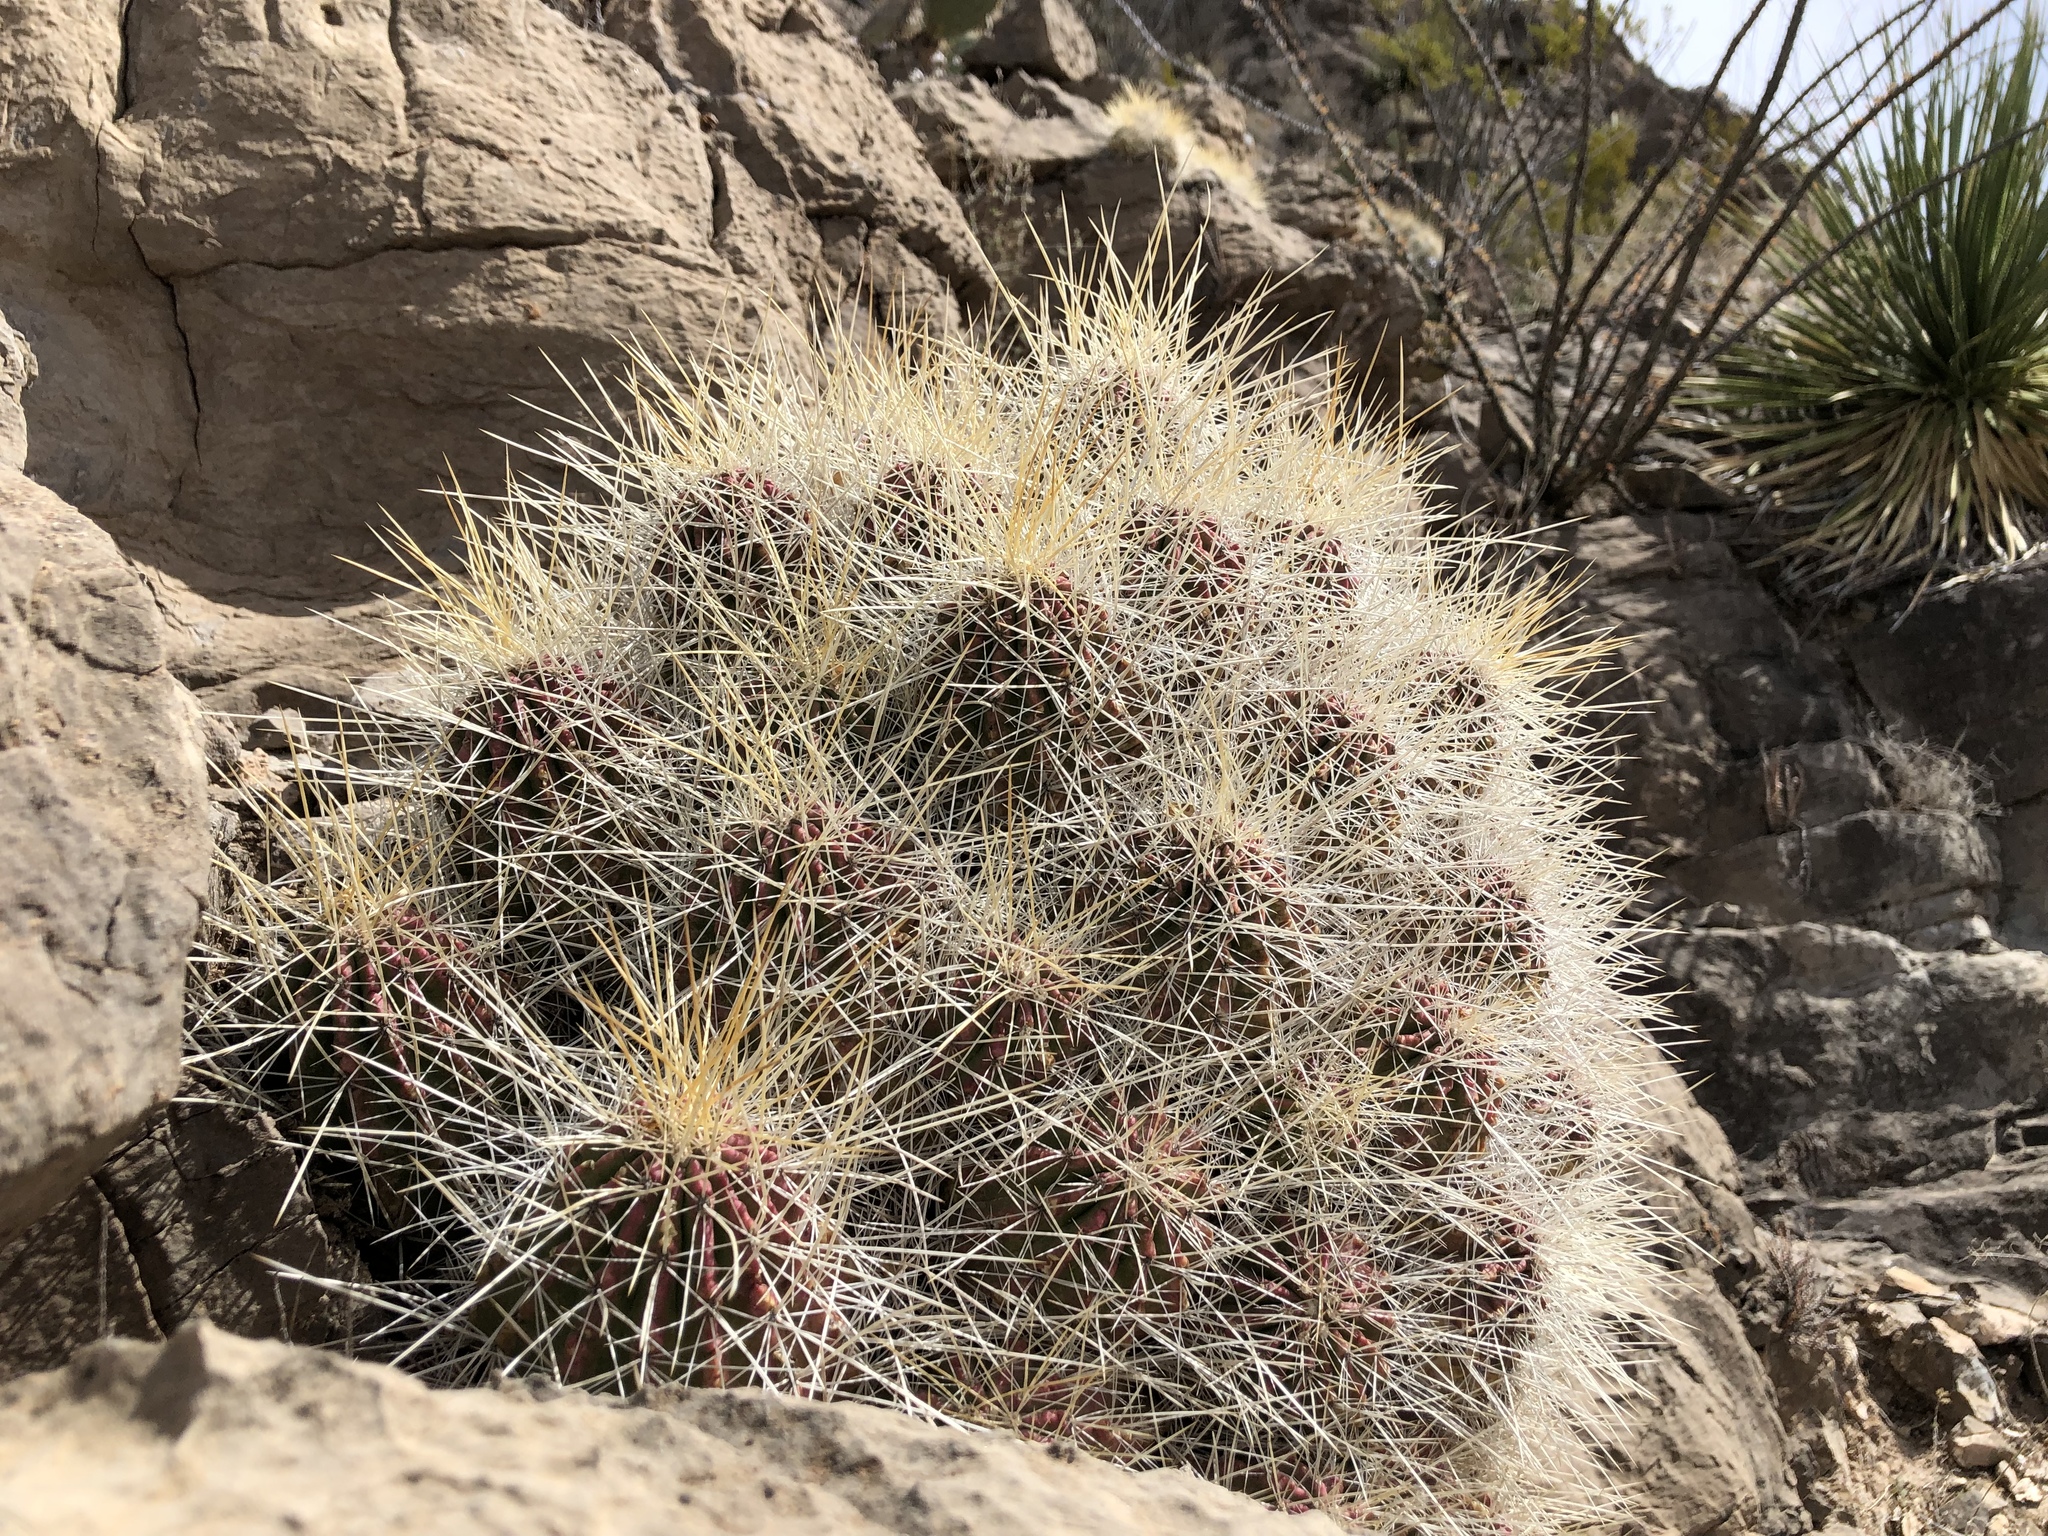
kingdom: Plantae
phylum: Tracheophyta
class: Magnoliopsida
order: Caryophyllales
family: Cactaceae
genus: Echinocereus
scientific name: Echinocereus stramineus
